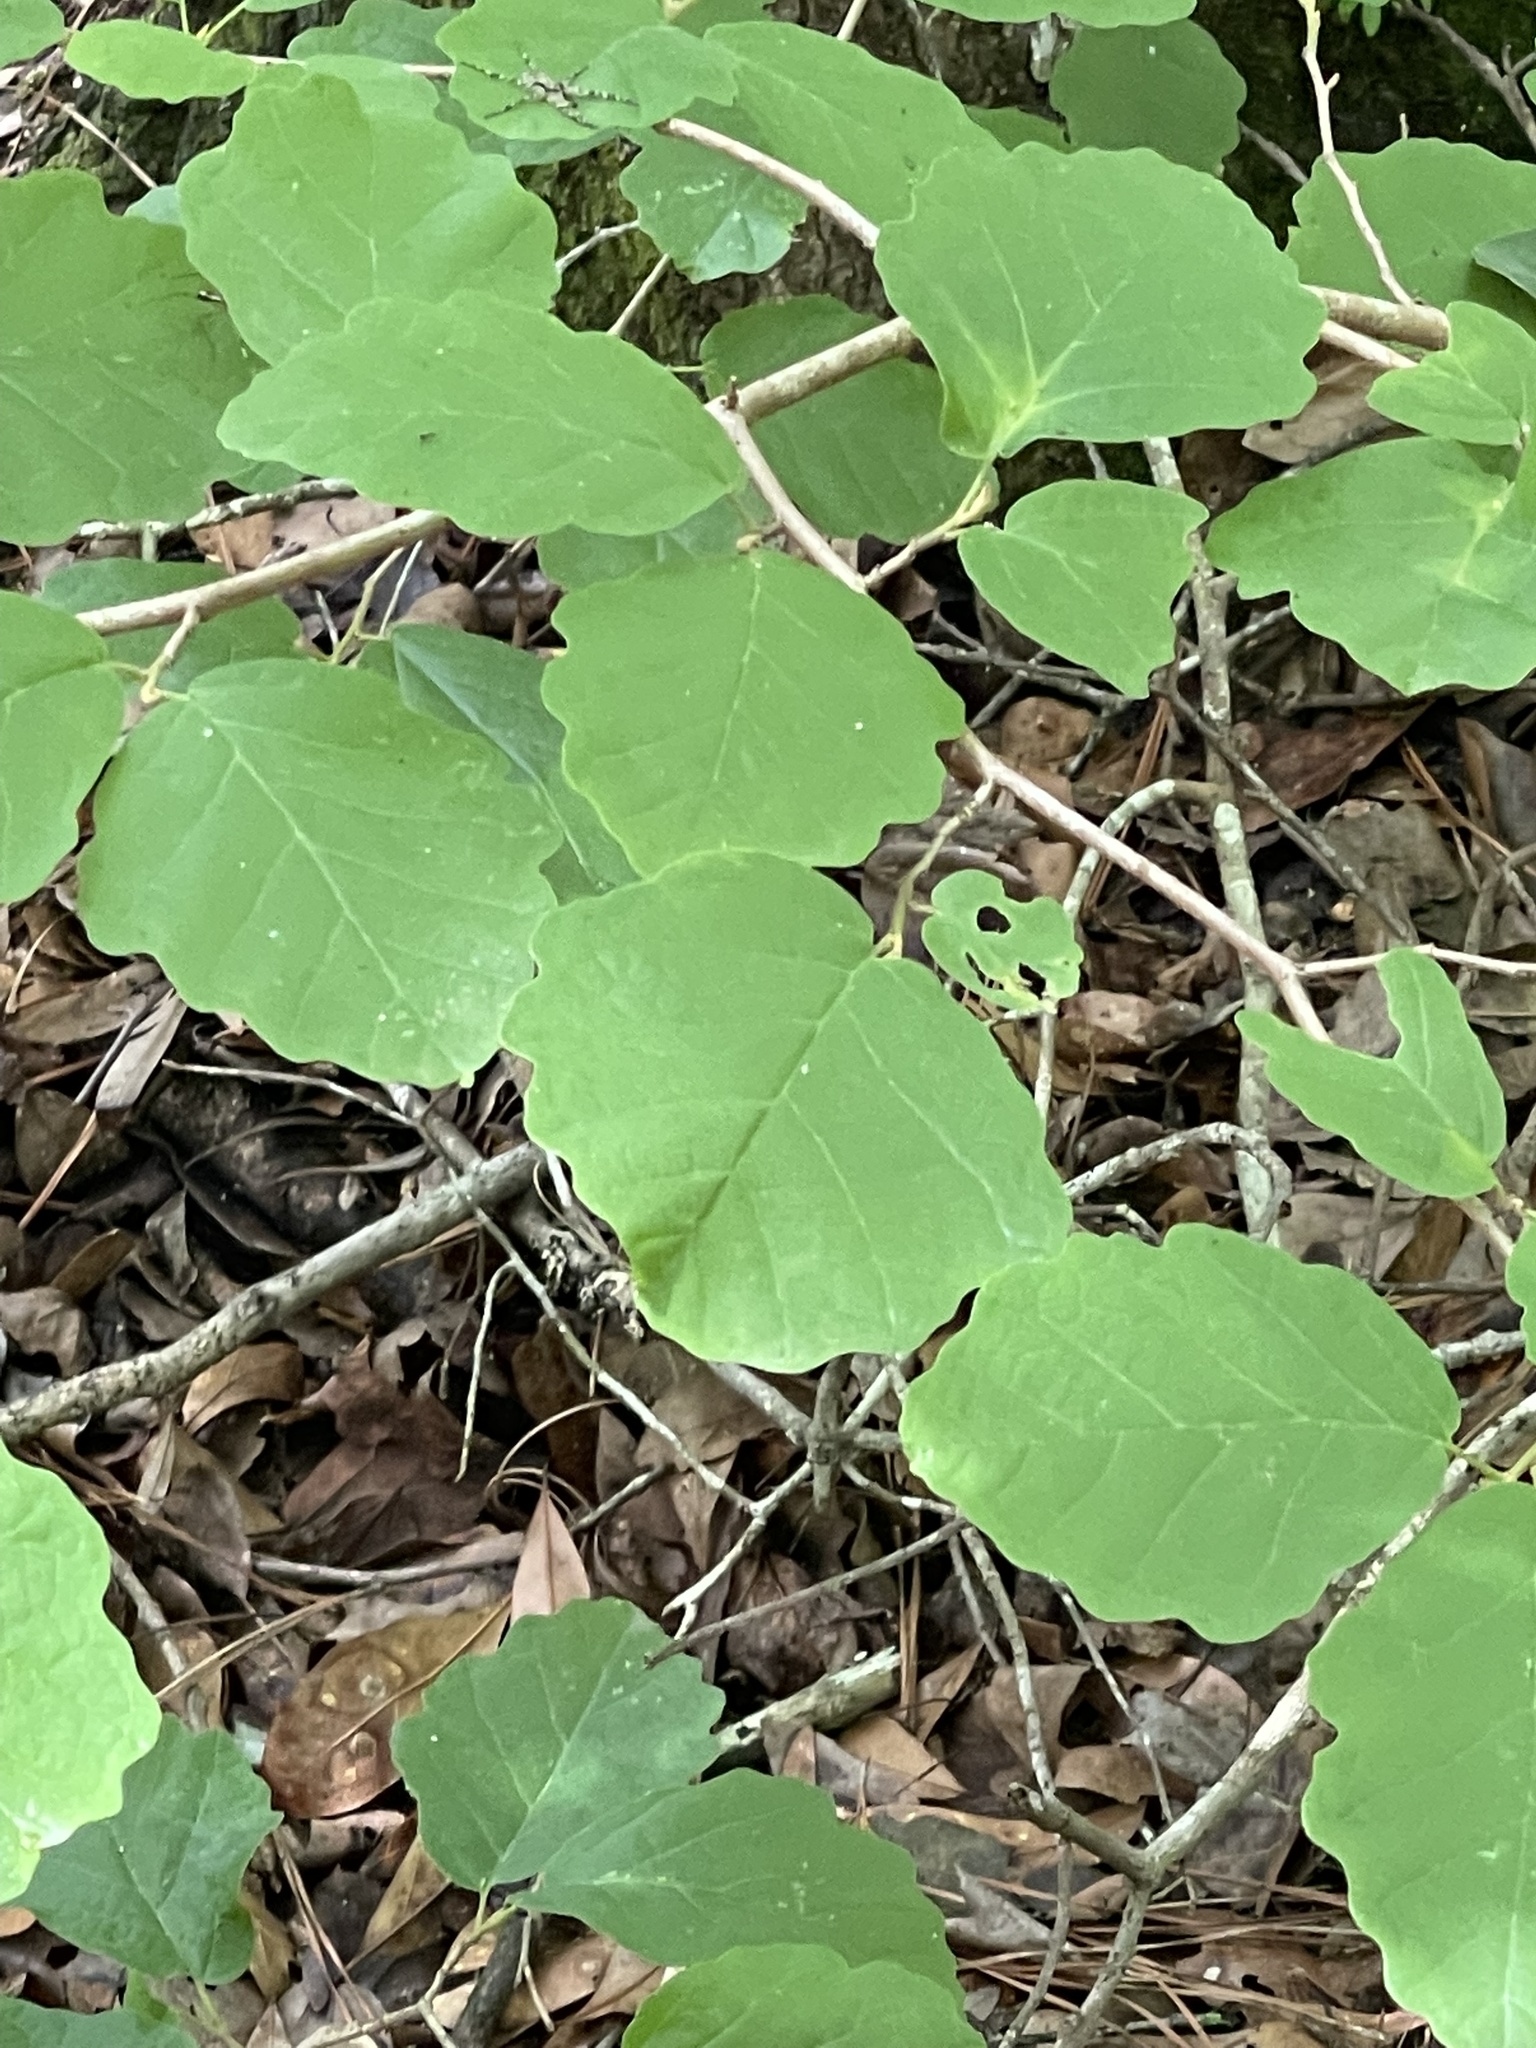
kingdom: Plantae
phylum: Tracheophyta
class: Magnoliopsida
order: Saxifragales
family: Hamamelidaceae
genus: Hamamelis
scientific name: Hamamelis virginiana
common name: Witch-hazel
